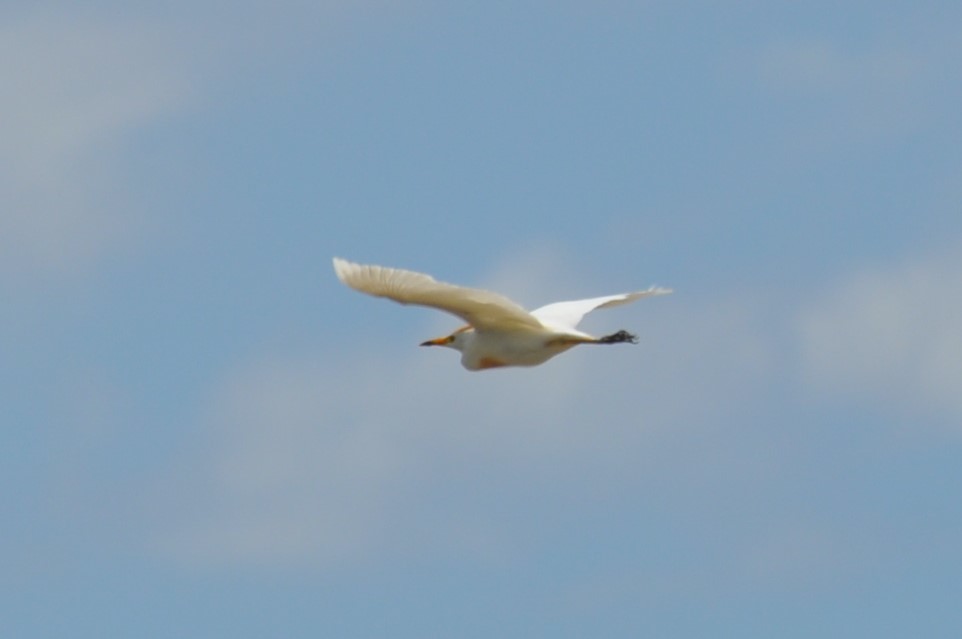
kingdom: Animalia
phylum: Chordata
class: Aves
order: Pelecaniformes
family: Ardeidae
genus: Bubulcus
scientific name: Bubulcus ibis
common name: Cattle egret
